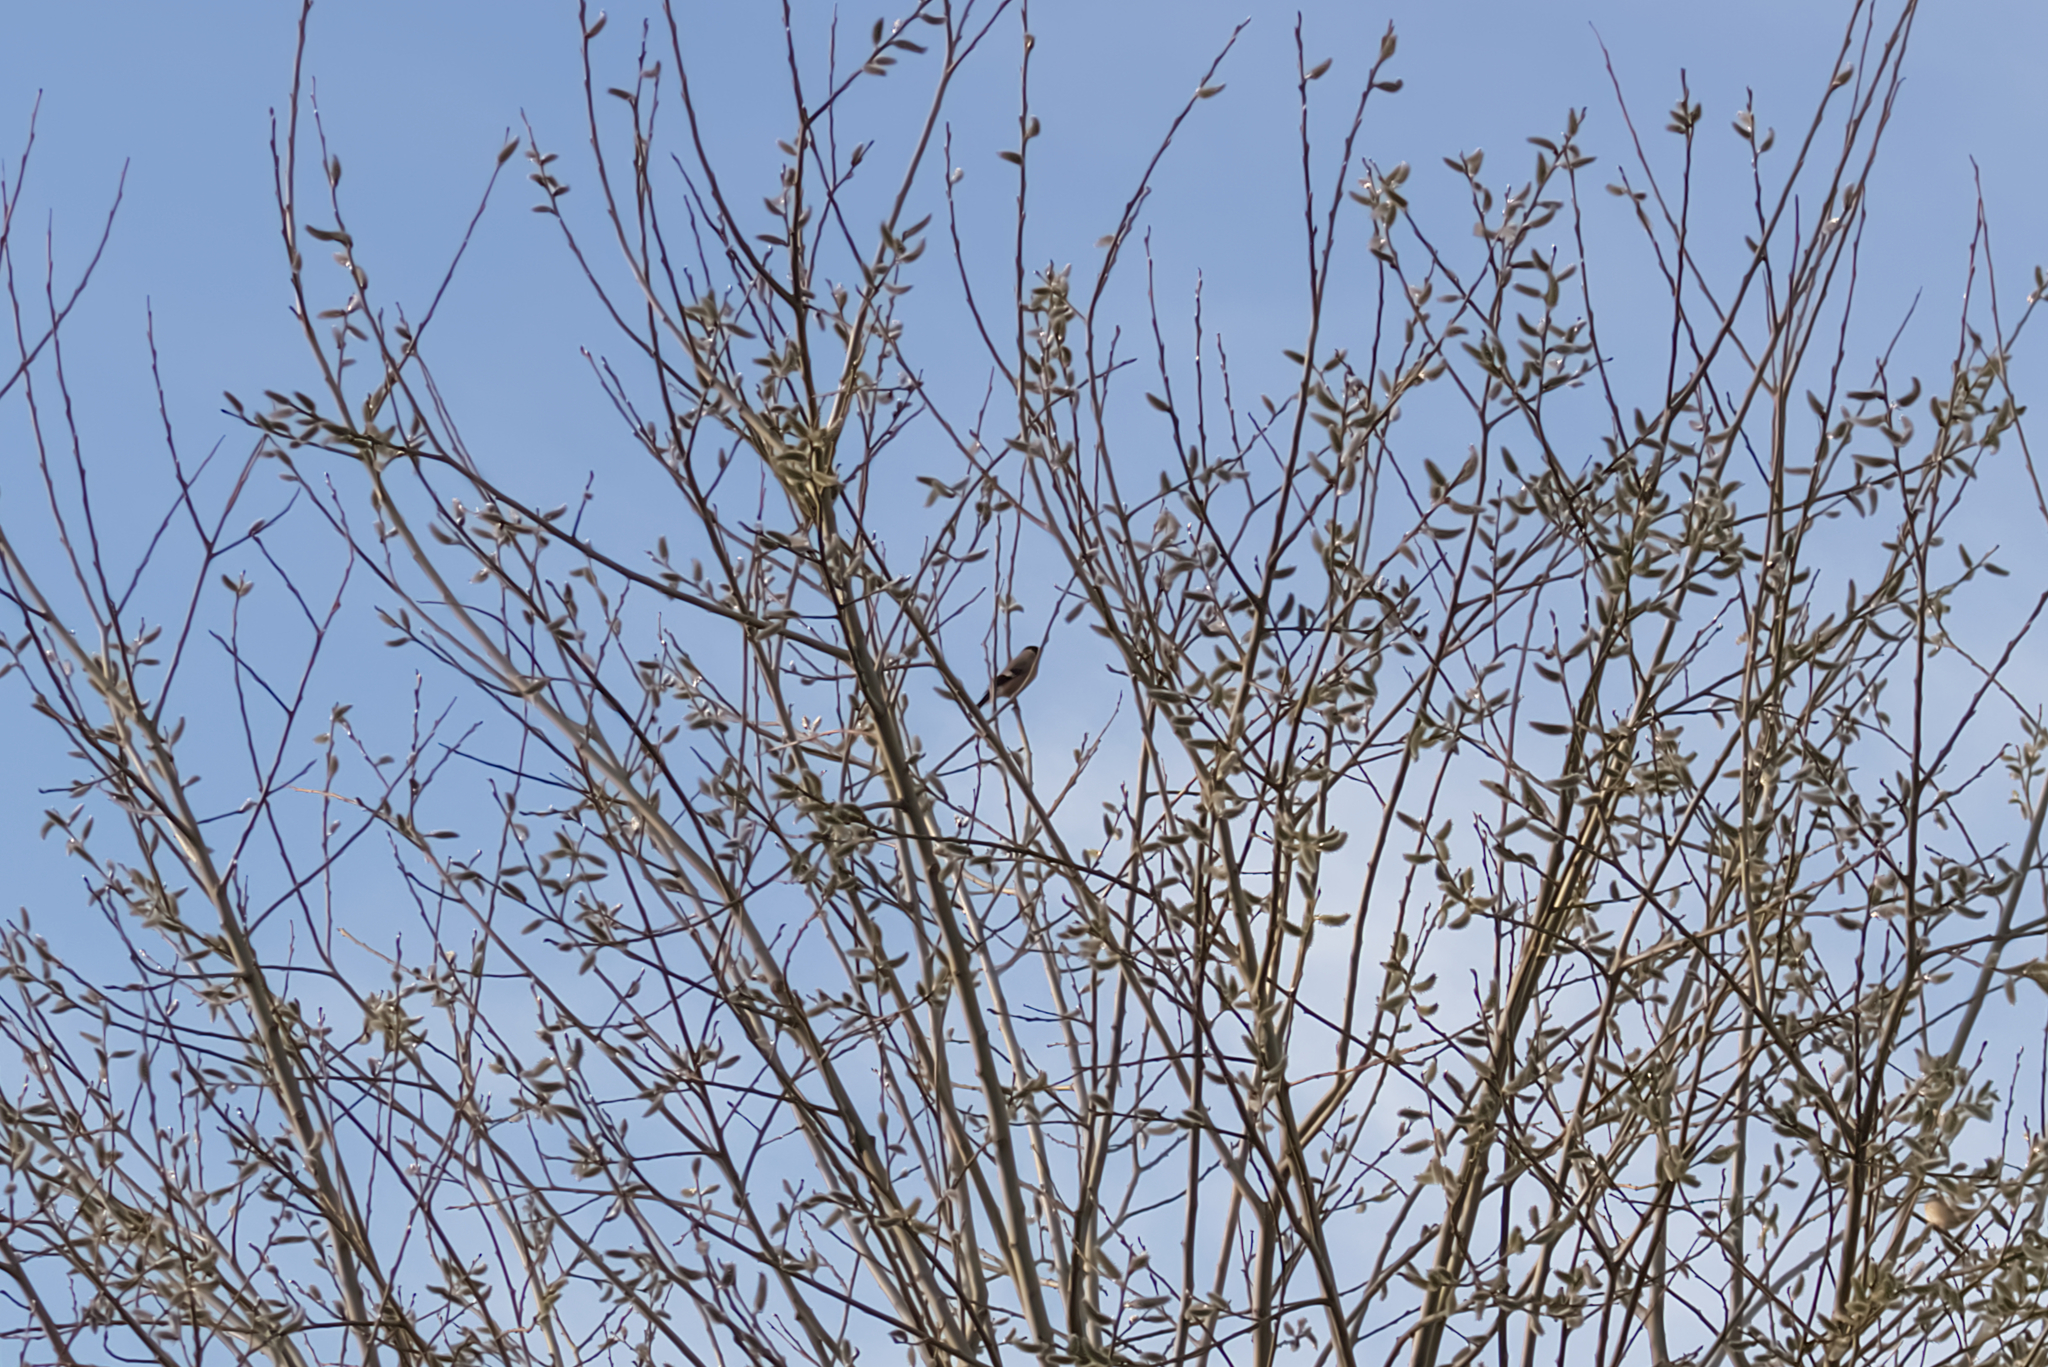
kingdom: Animalia
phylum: Chordata
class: Aves
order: Passeriformes
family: Fringillidae
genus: Pyrrhula
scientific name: Pyrrhula pyrrhula
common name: Eurasian bullfinch
